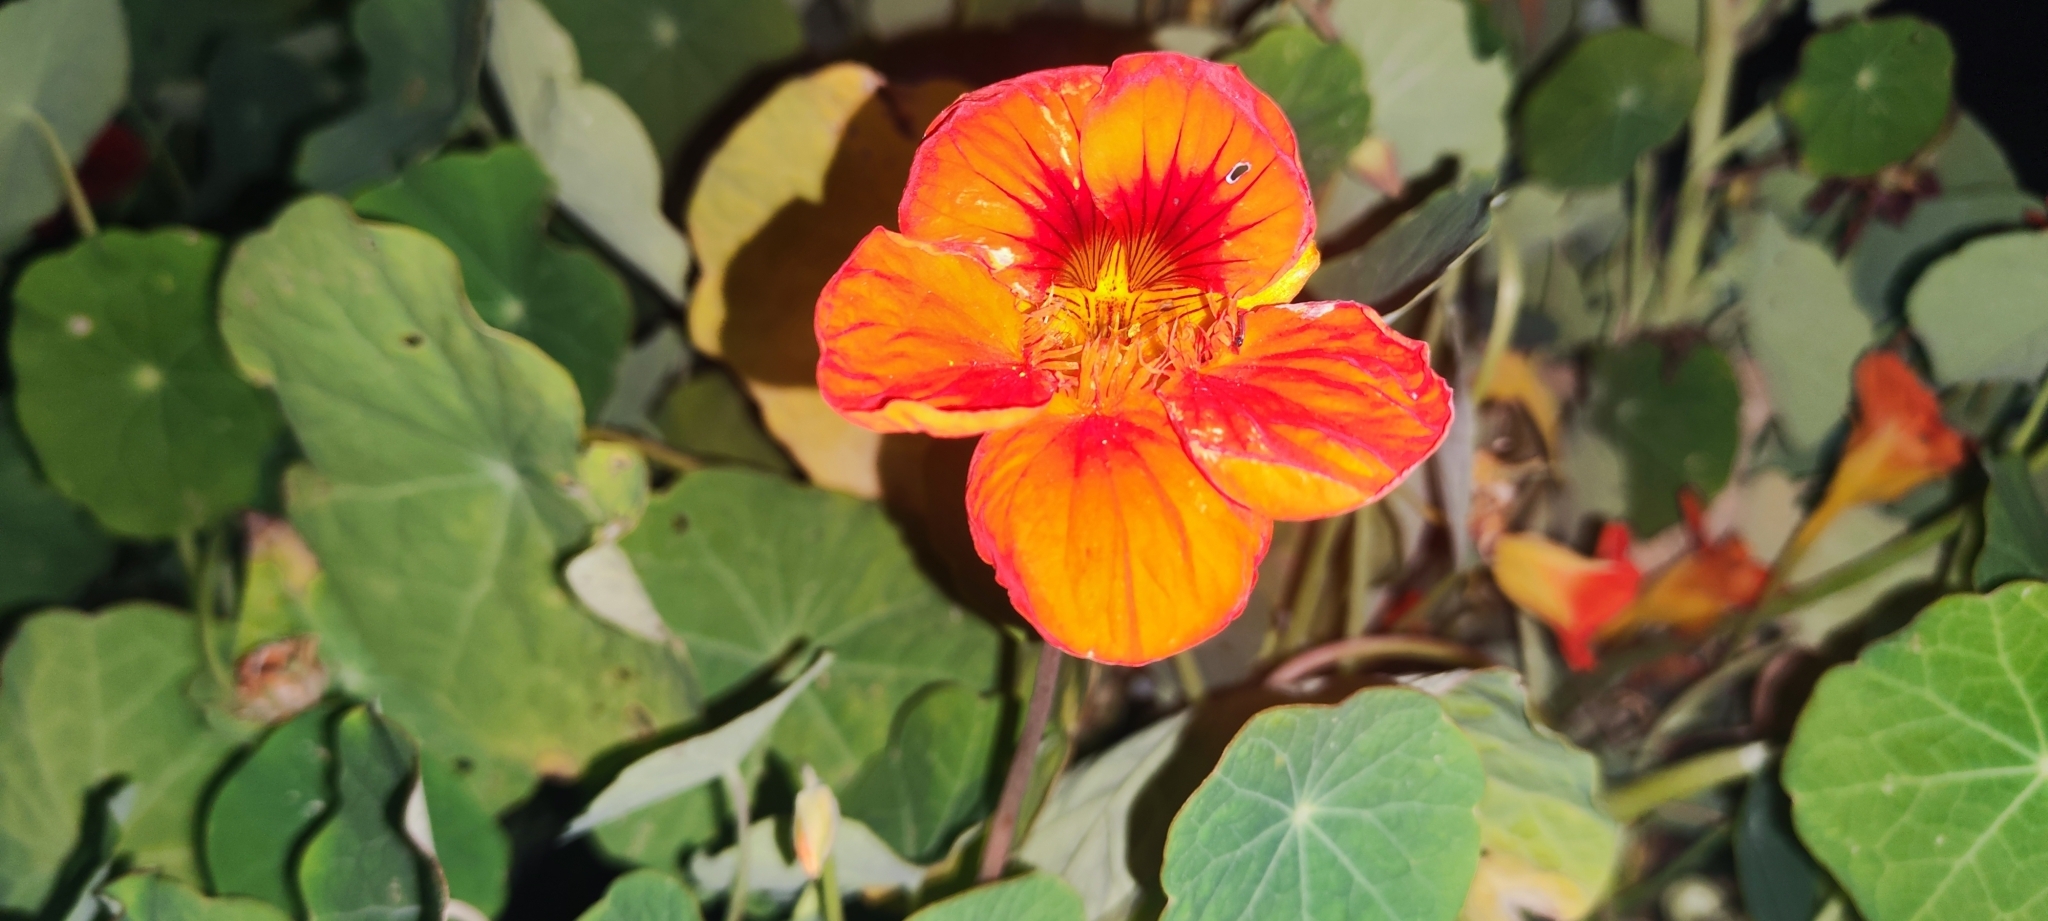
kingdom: Plantae
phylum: Tracheophyta
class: Magnoliopsida
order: Brassicales
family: Tropaeolaceae
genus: Tropaeolum
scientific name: Tropaeolum majus
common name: Nasturtium
